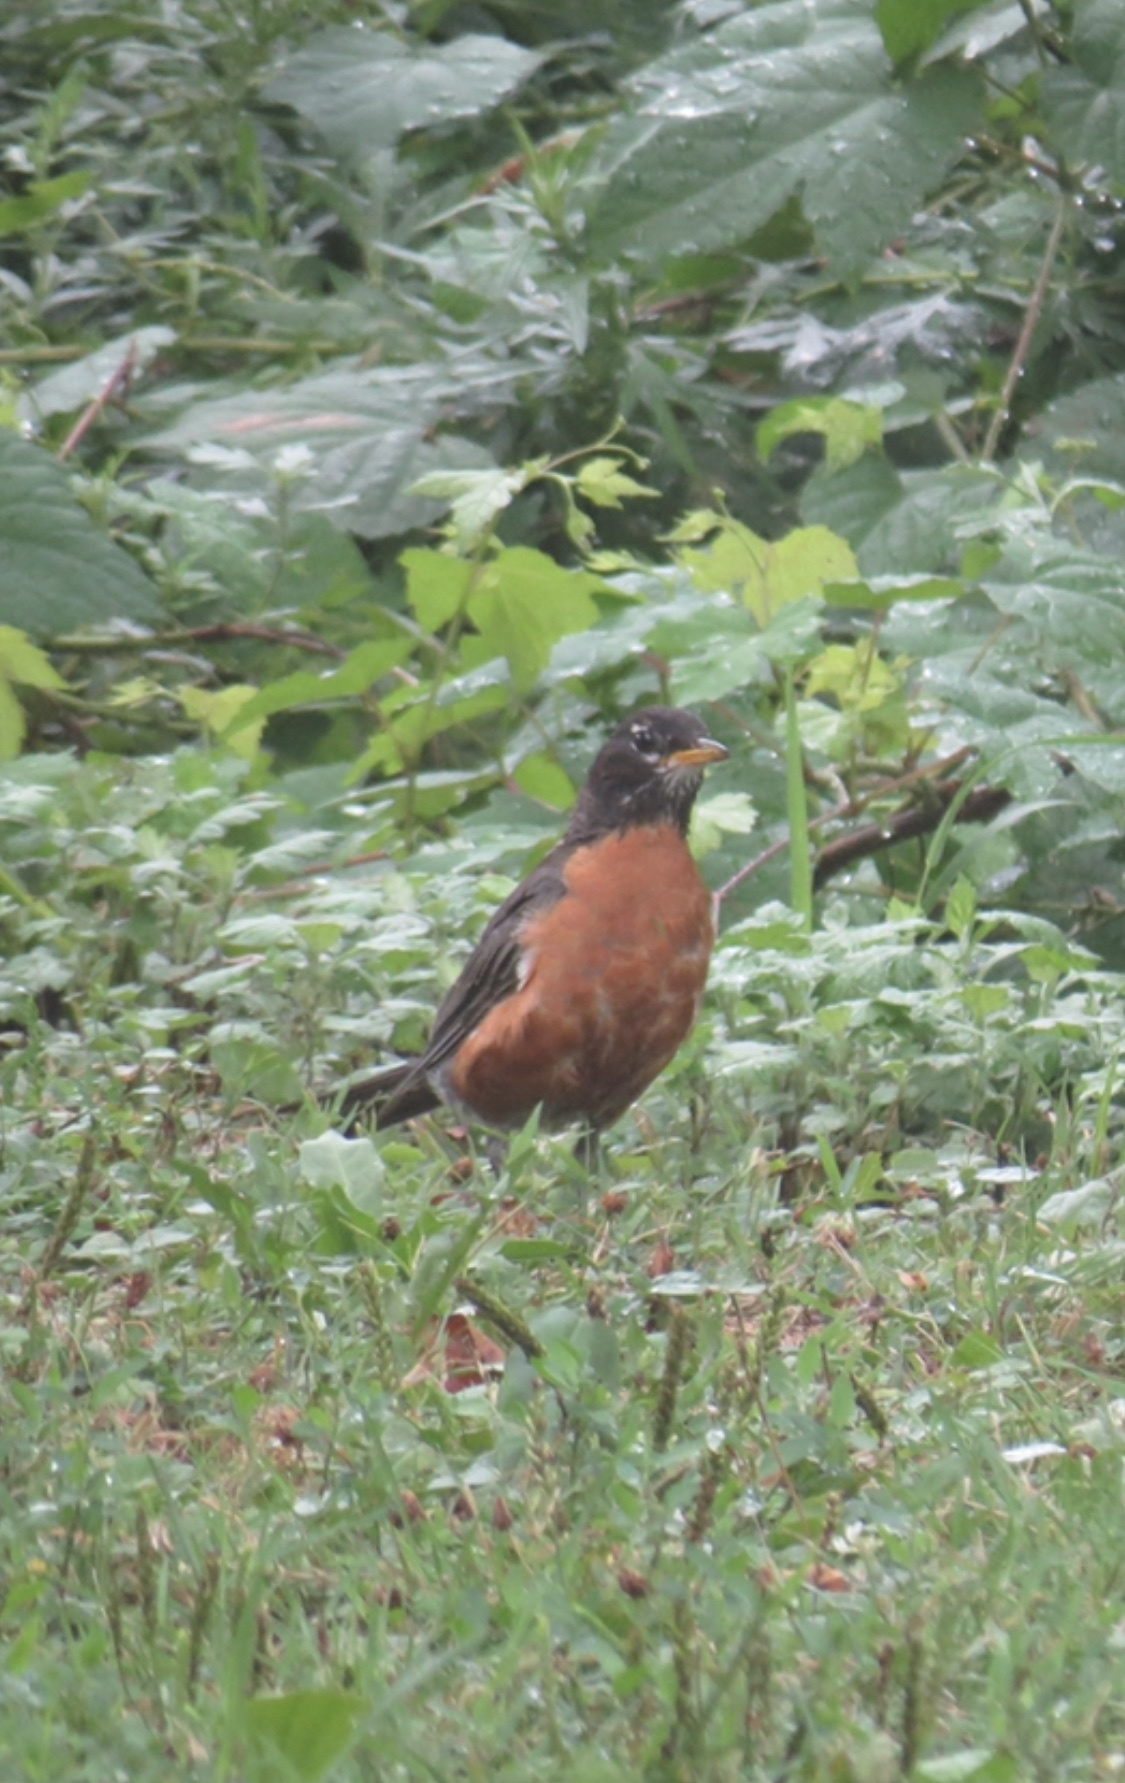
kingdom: Animalia
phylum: Chordata
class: Aves
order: Passeriformes
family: Turdidae
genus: Turdus
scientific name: Turdus migratorius
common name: American robin
